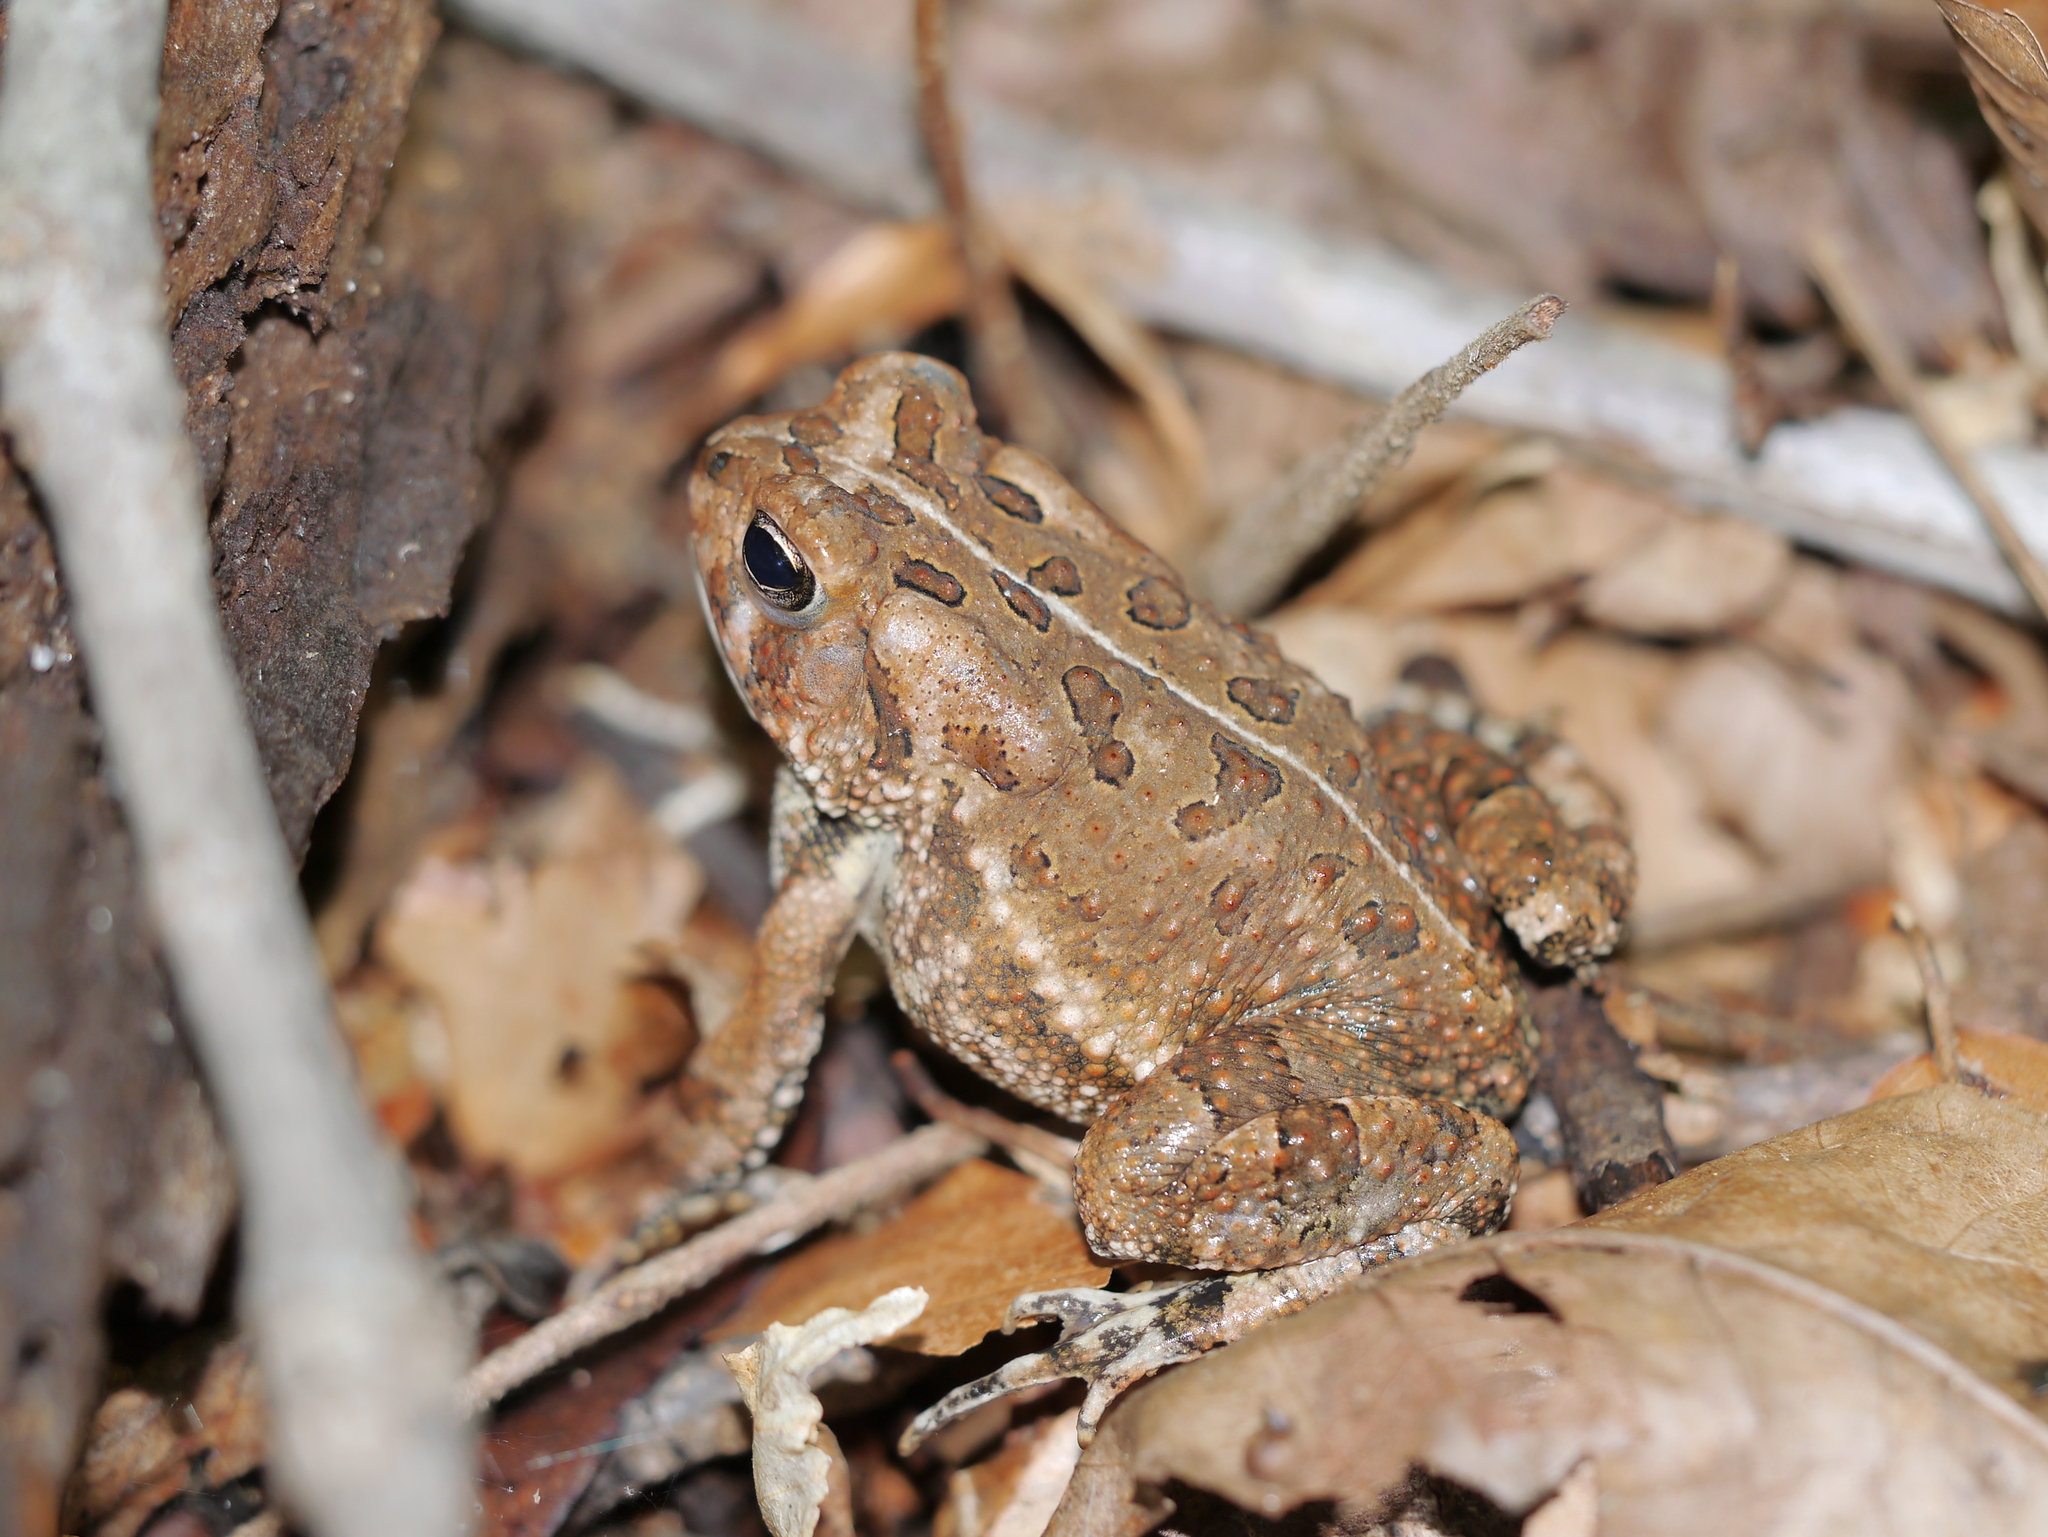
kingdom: Animalia
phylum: Chordata
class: Amphibia
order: Anura
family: Bufonidae
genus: Anaxyrus
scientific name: Anaxyrus fowleri
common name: Fowler's toad
